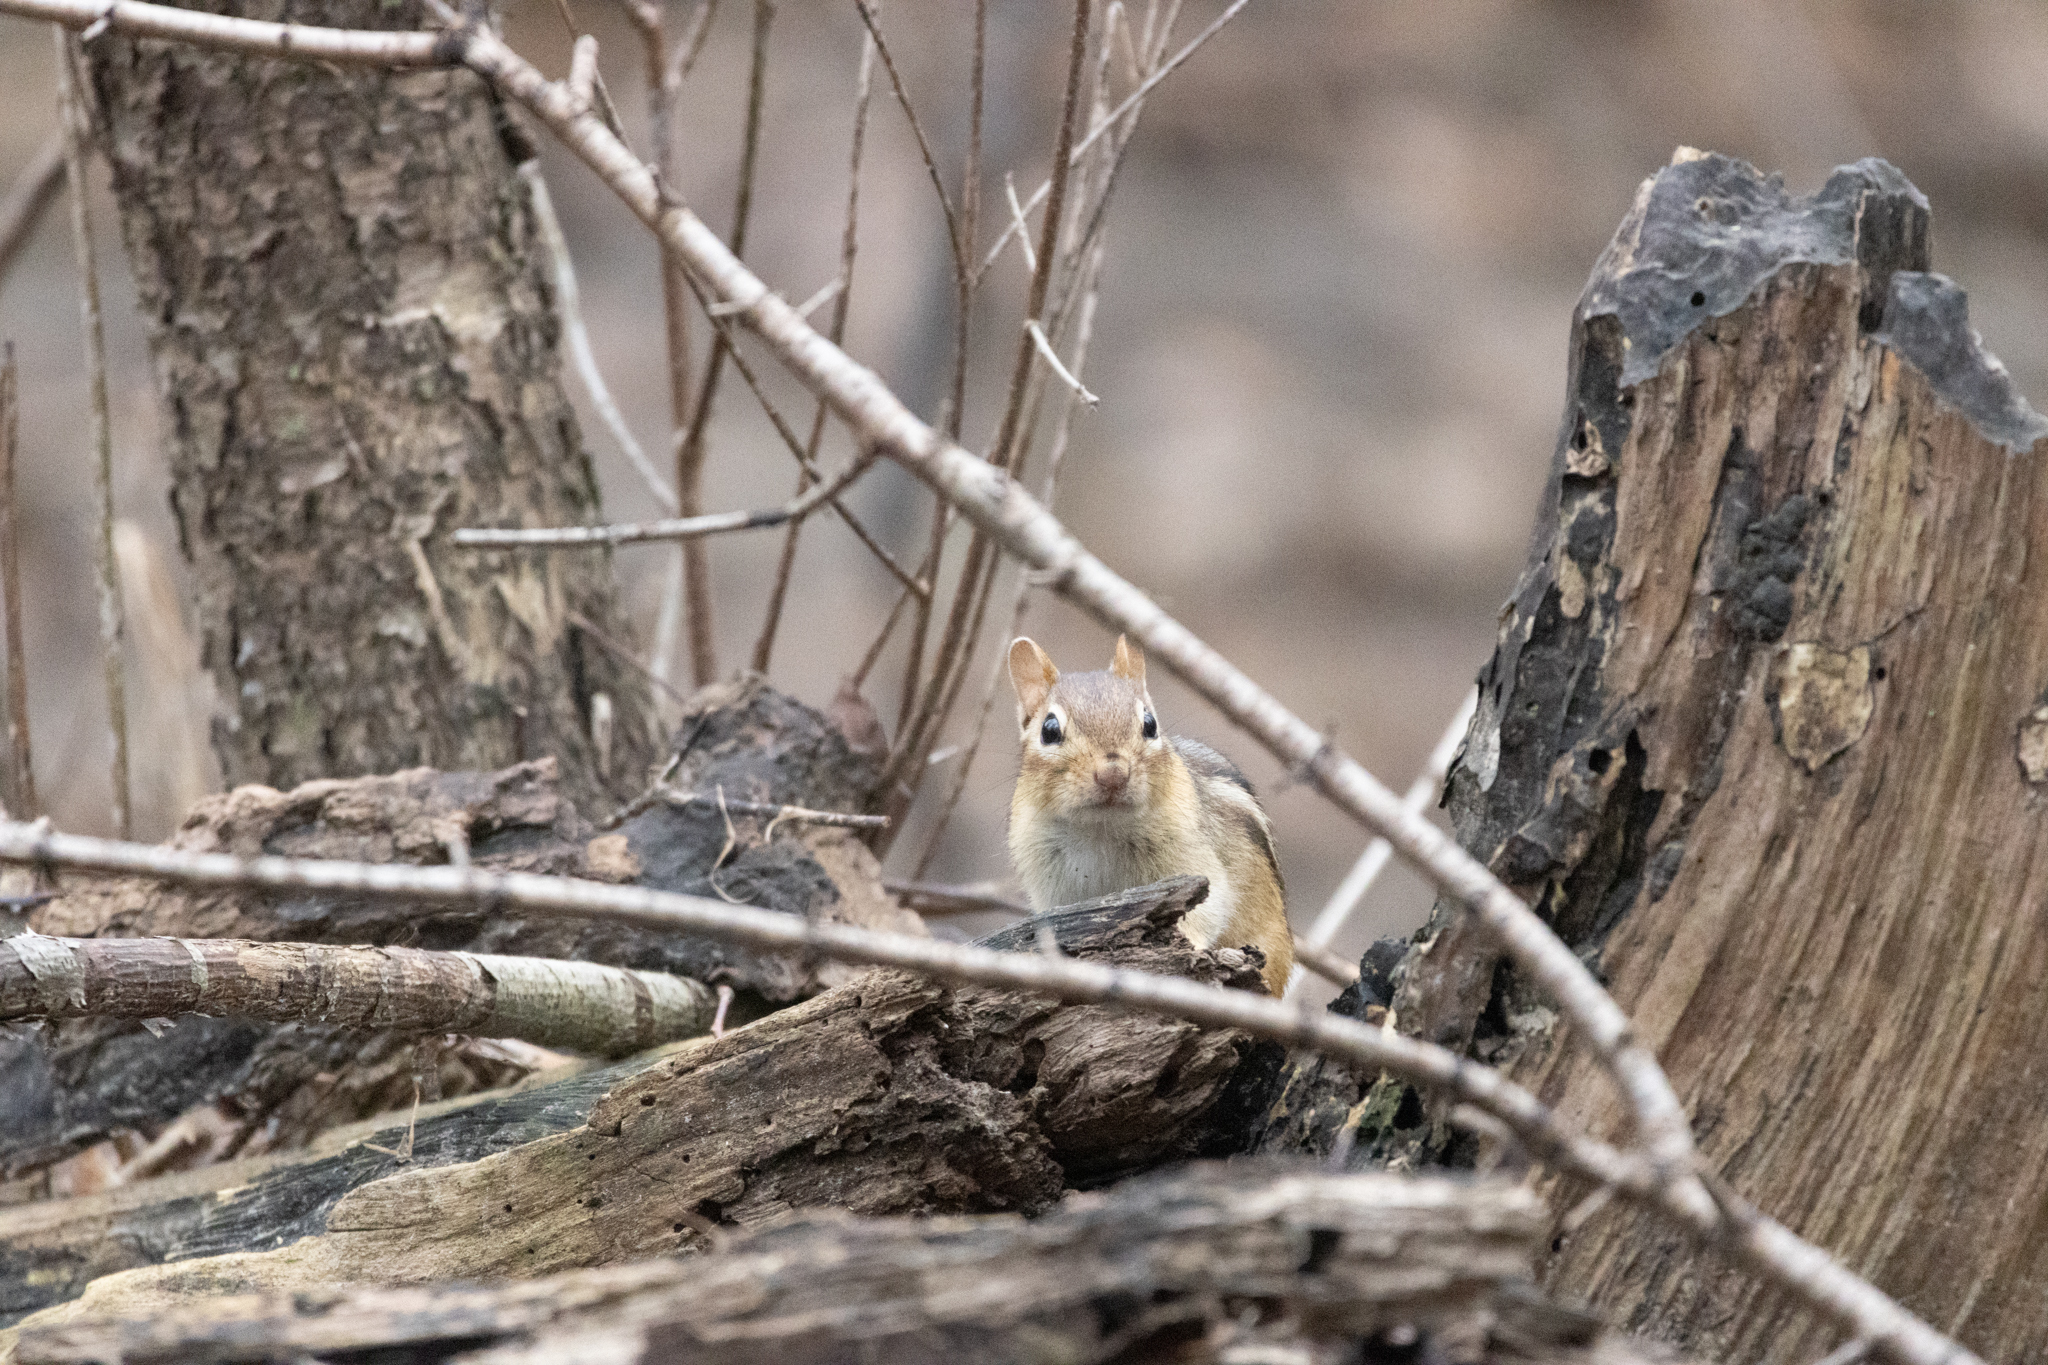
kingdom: Animalia
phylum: Chordata
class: Mammalia
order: Rodentia
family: Sciuridae
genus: Tamias
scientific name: Tamias striatus
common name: Eastern chipmunk
